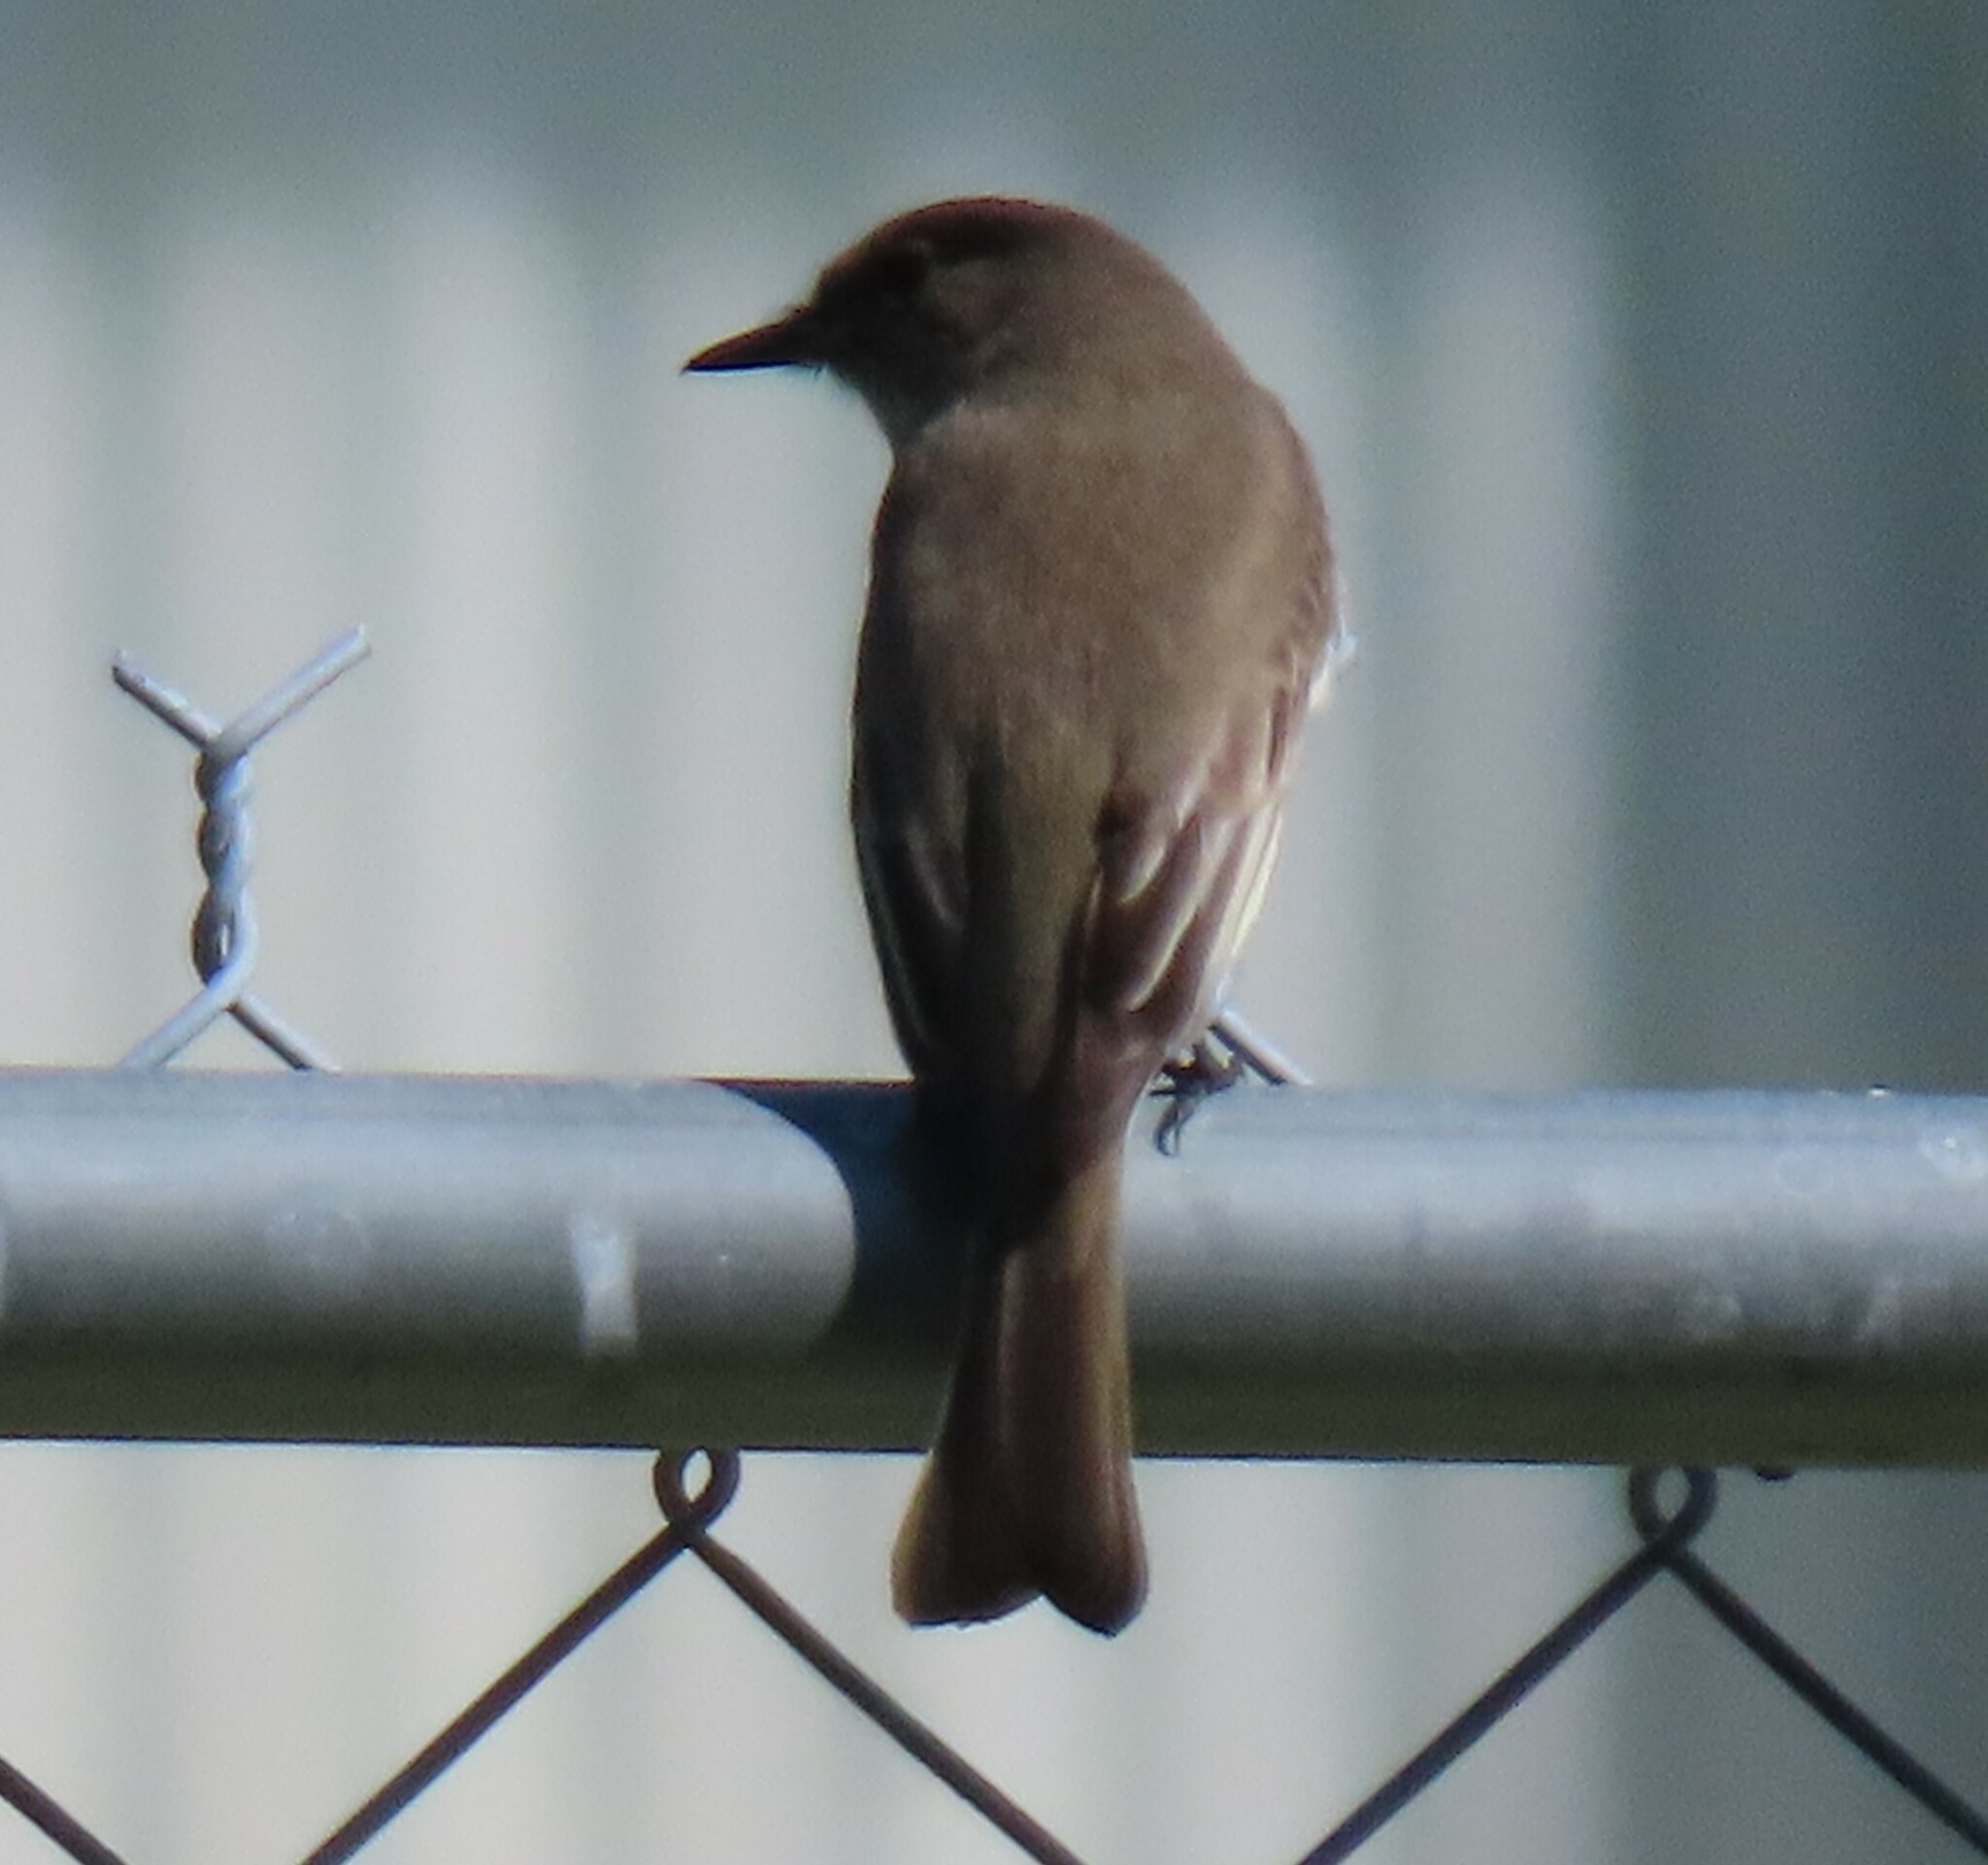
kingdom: Animalia
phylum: Chordata
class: Aves
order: Passeriformes
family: Tyrannidae
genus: Sayornis
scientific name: Sayornis phoebe
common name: Eastern phoebe
